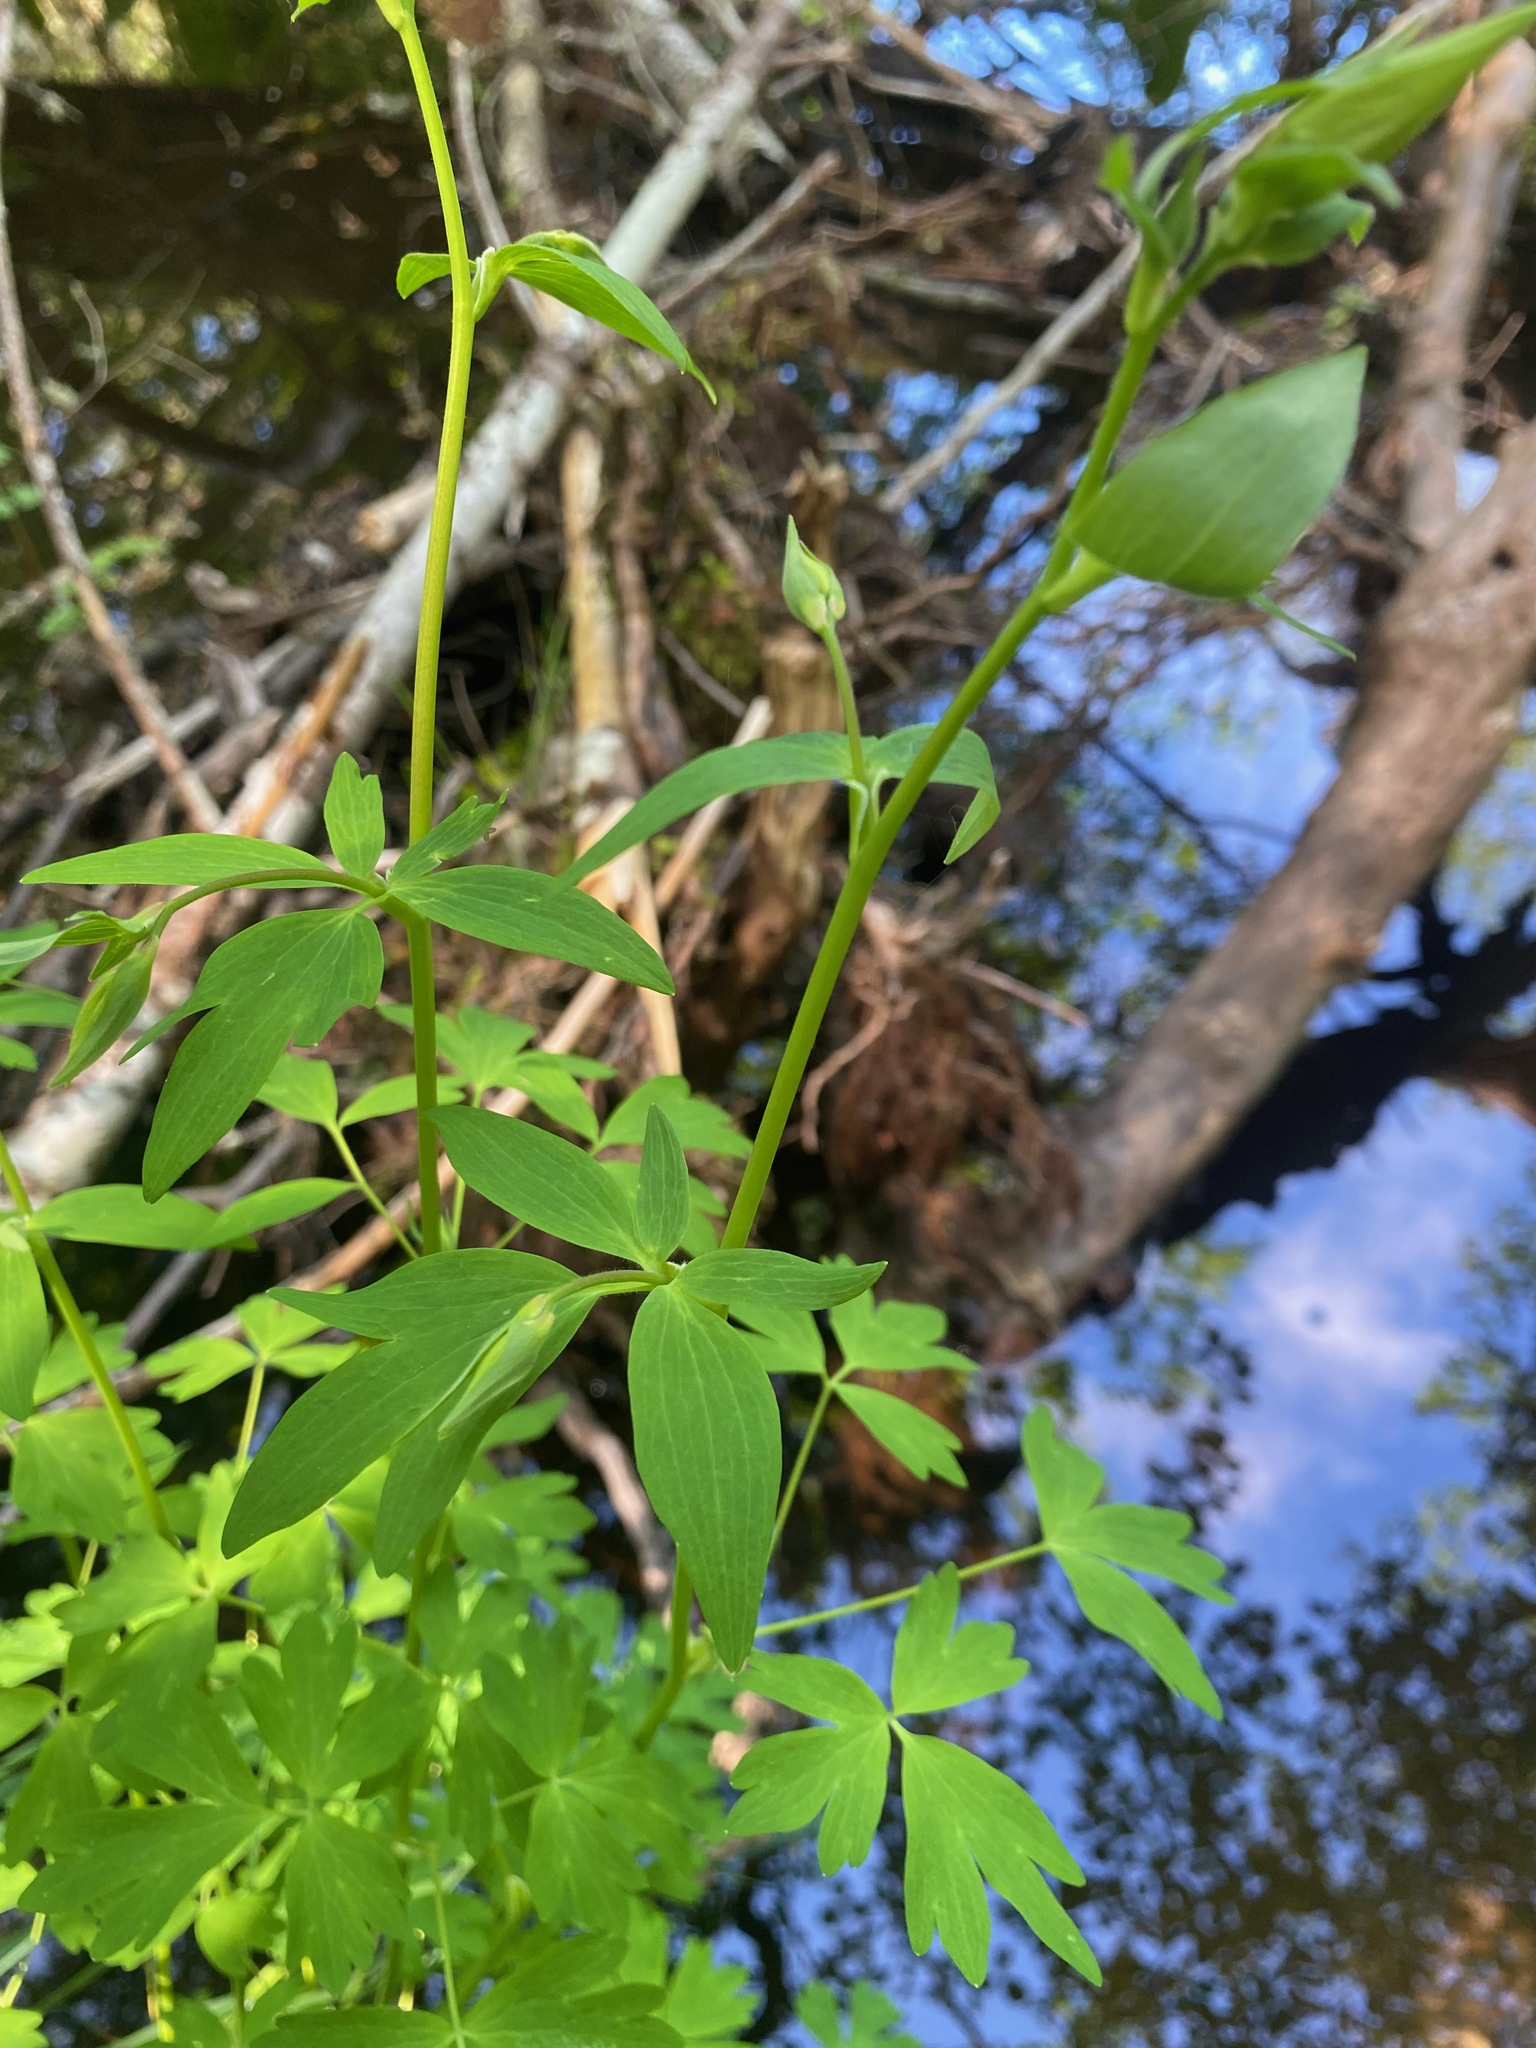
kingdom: Plantae
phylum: Tracheophyta
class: Magnoliopsida
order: Ranunculales
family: Ranunculaceae
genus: Aquilegia
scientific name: Aquilegia formosa
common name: Sitka columbine
